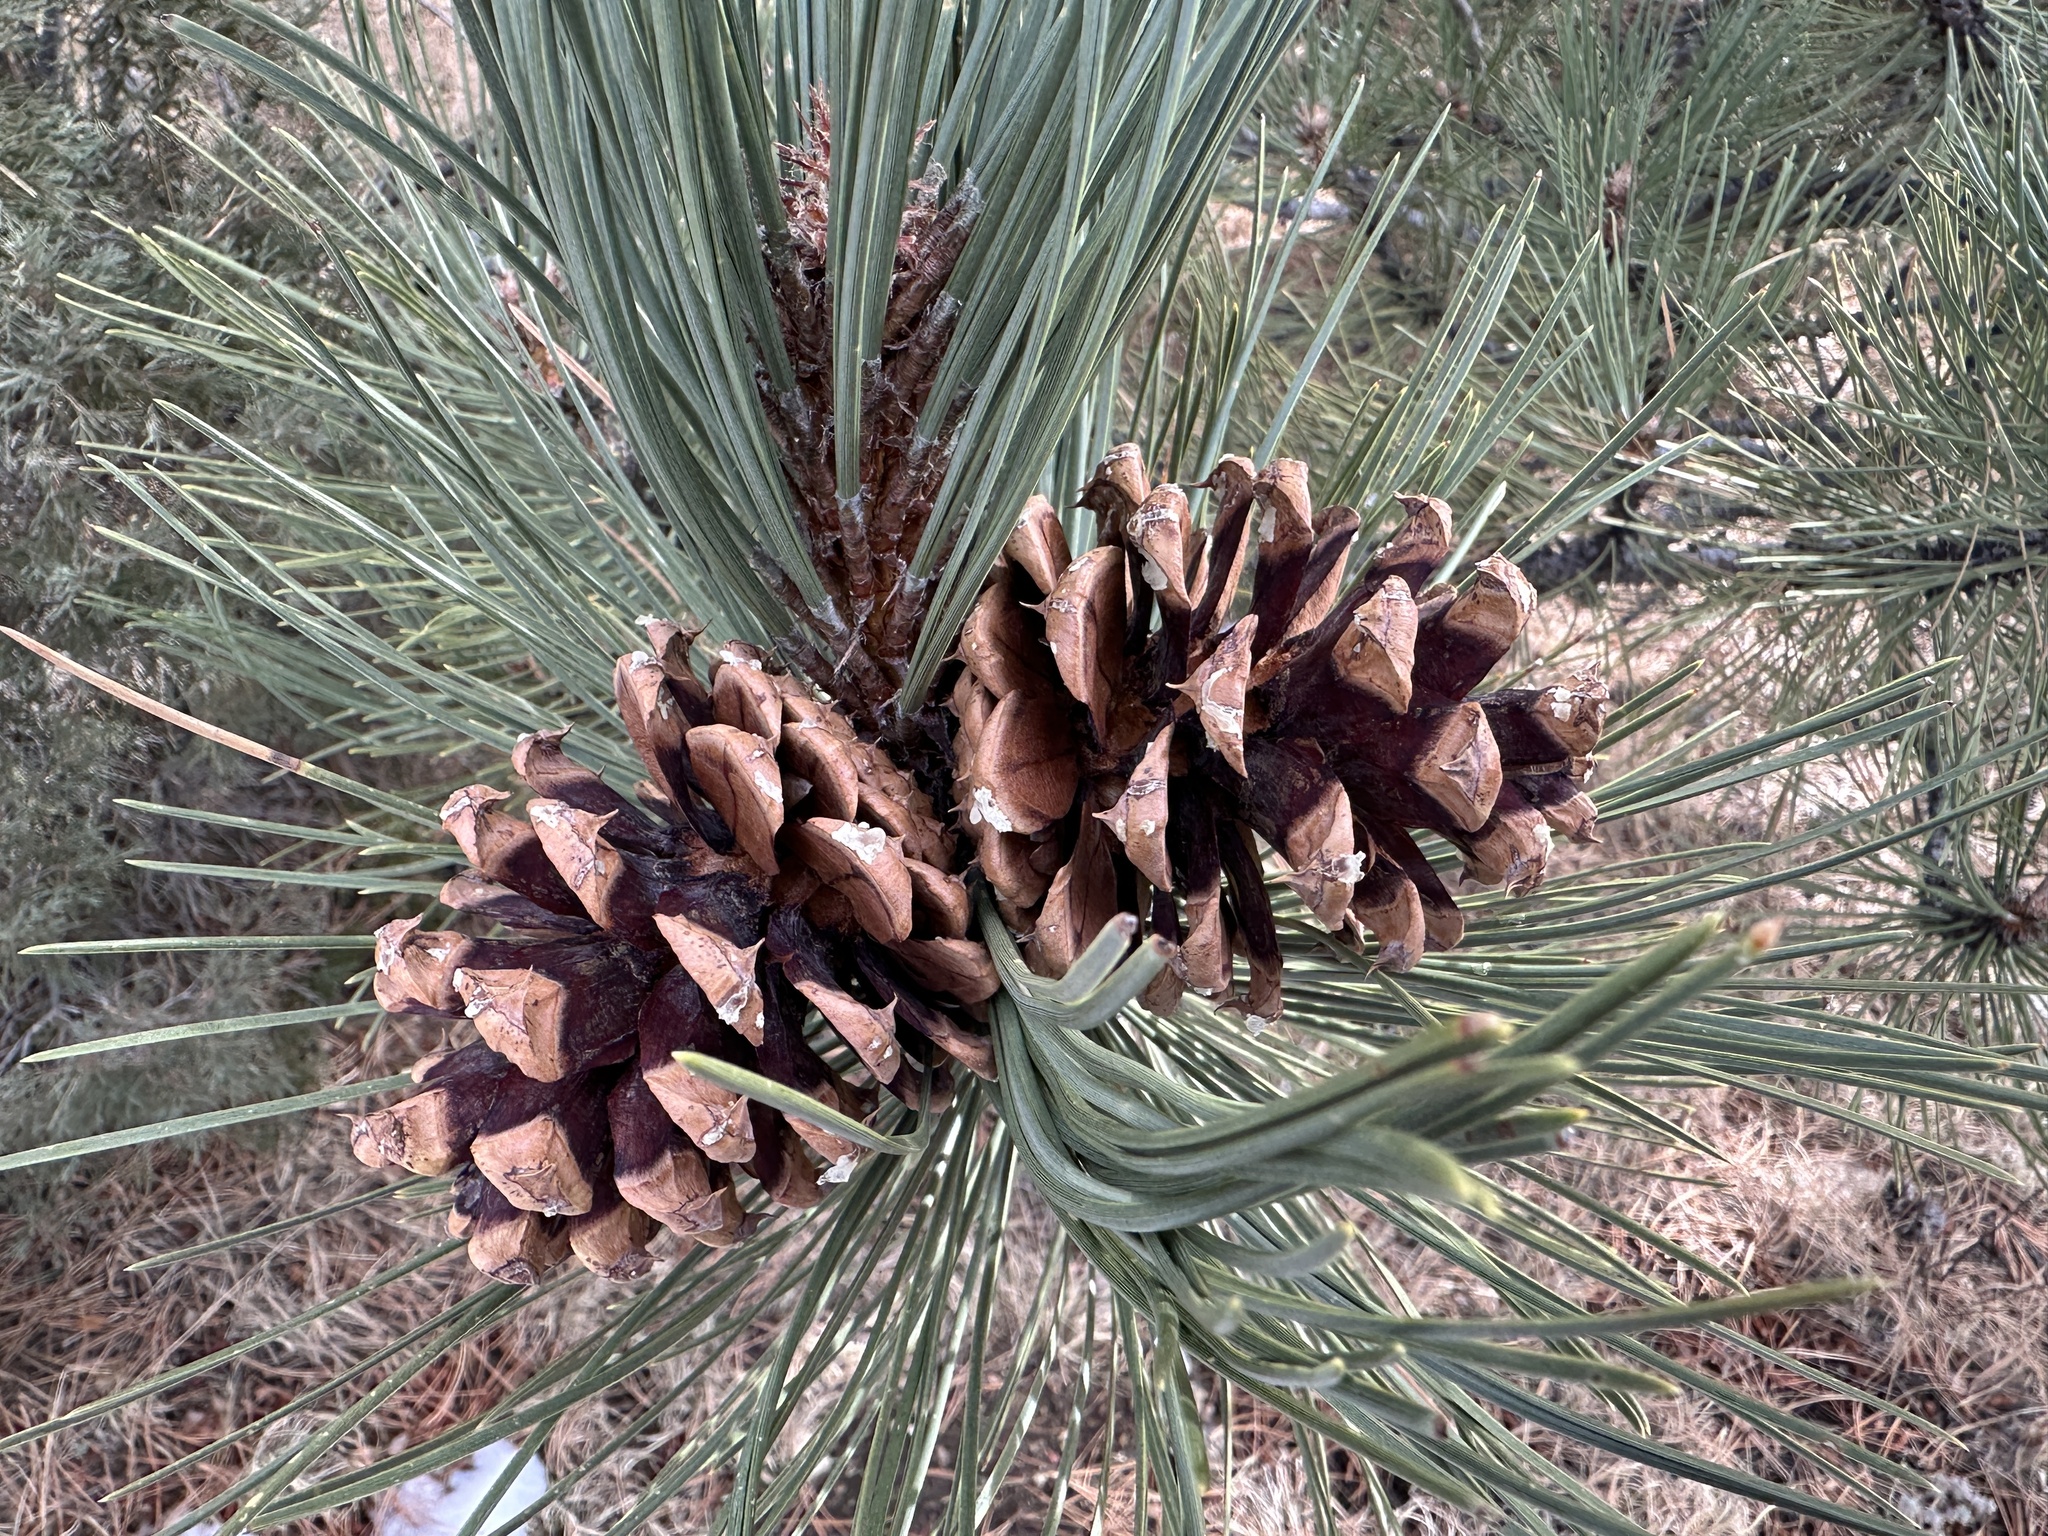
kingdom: Plantae
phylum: Tracheophyta
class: Pinopsida
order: Pinales
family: Pinaceae
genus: Pinus
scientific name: Pinus ponderosa
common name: Western yellow-pine
